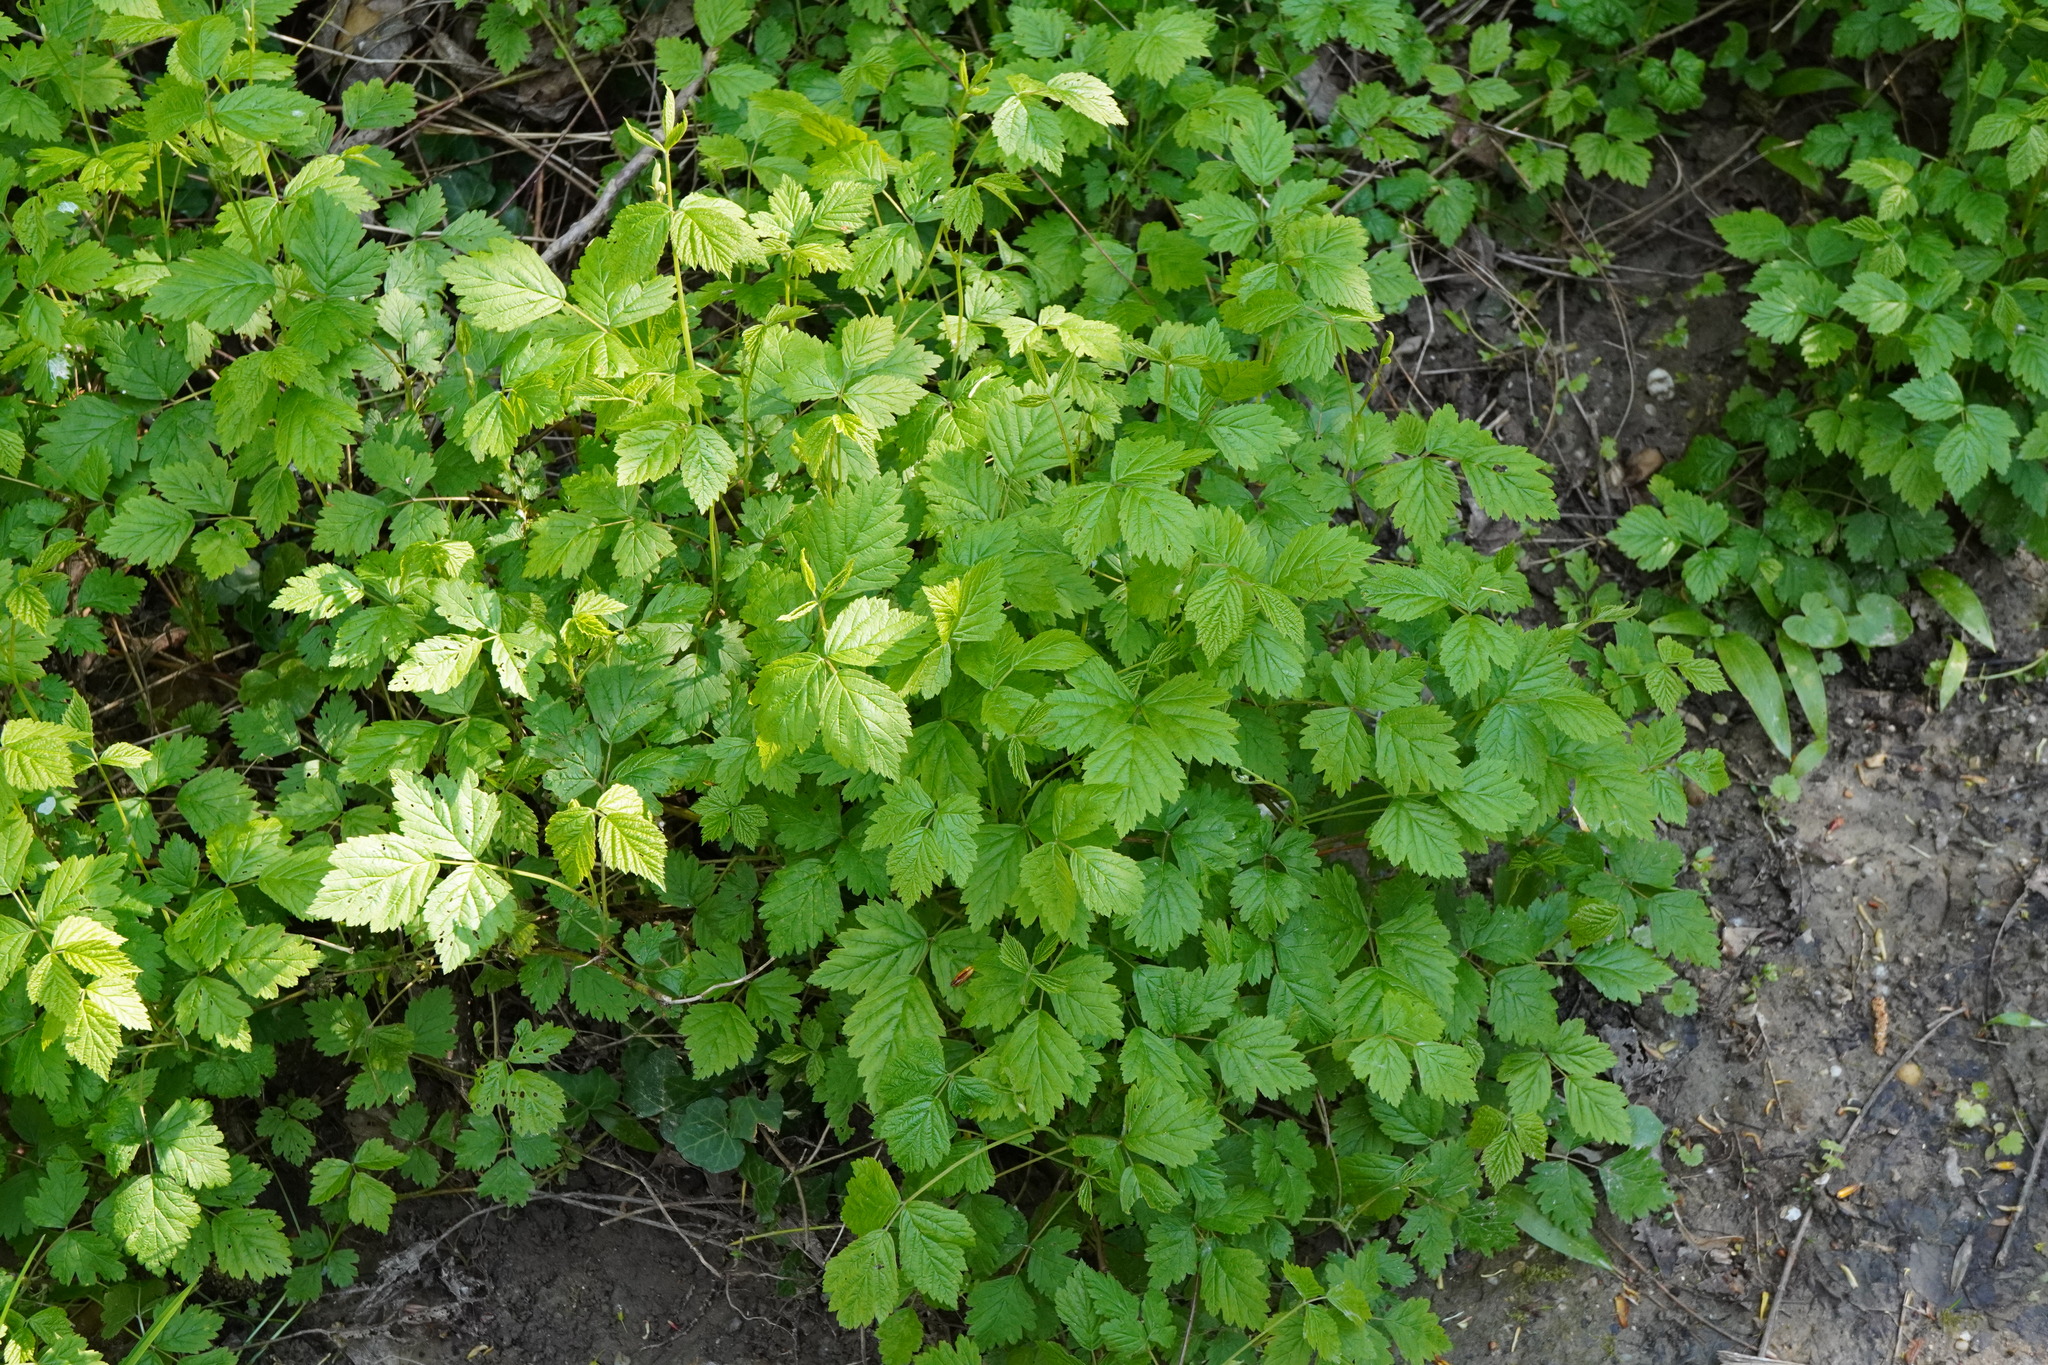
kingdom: Plantae
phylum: Tracheophyta
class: Magnoliopsida
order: Rosales
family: Rosaceae
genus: Rubus
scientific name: Rubus caesius
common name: Dewberry
